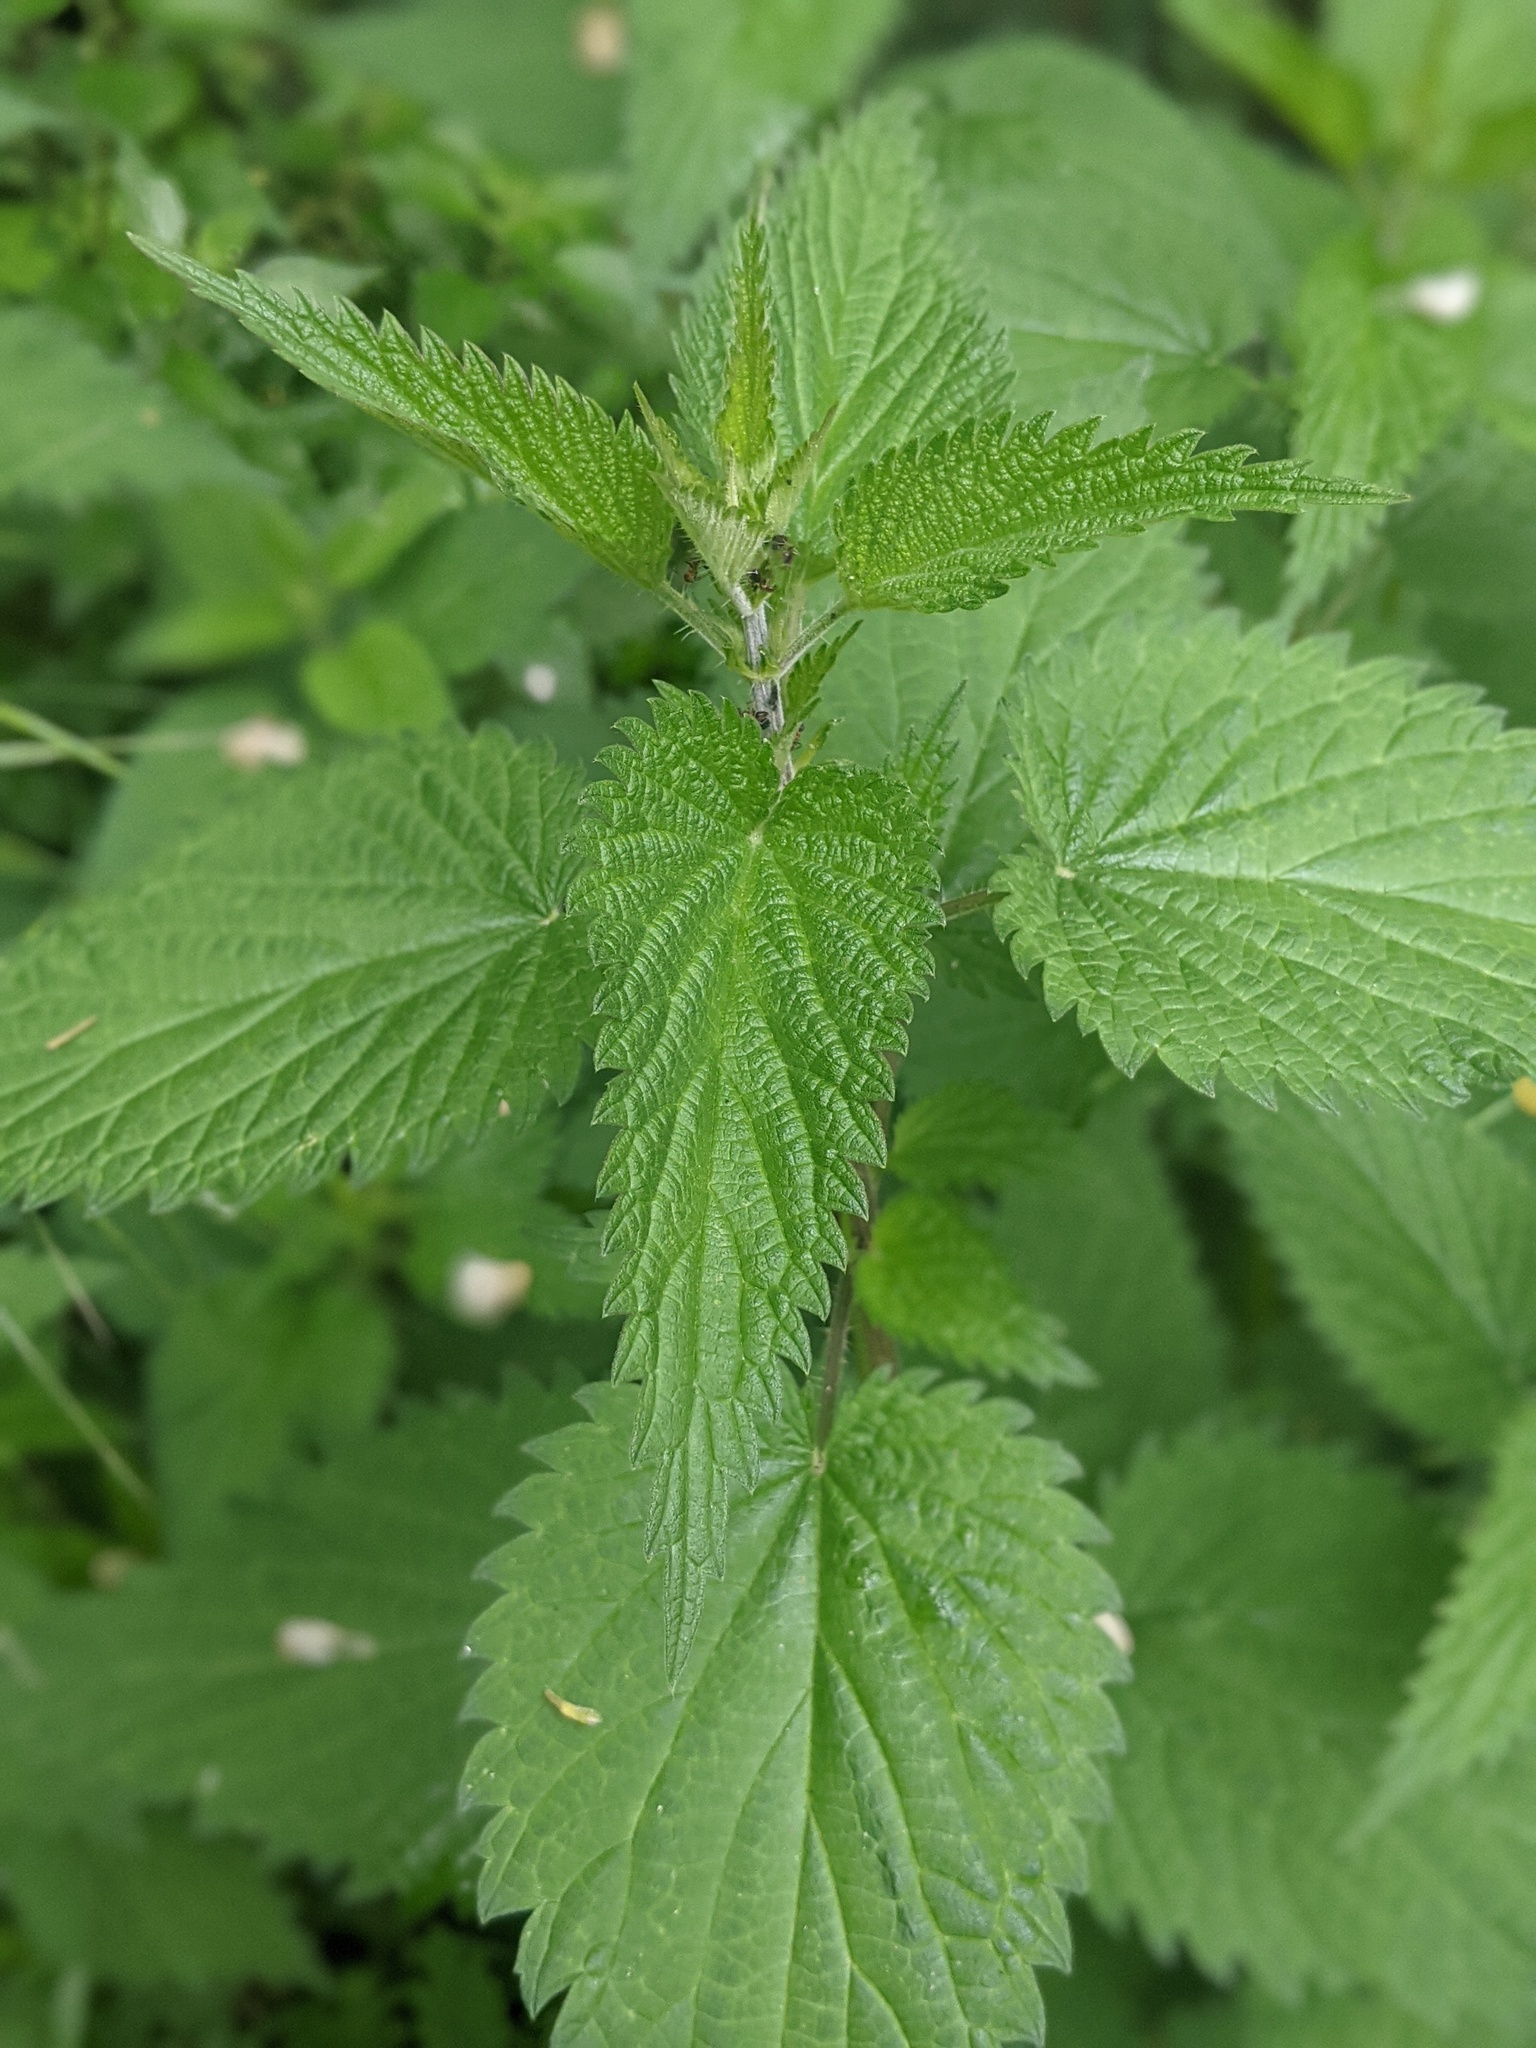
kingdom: Plantae
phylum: Tracheophyta
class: Magnoliopsida
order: Rosales
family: Urticaceae
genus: Urtica
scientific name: Urtica dioica
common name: Common nettle
